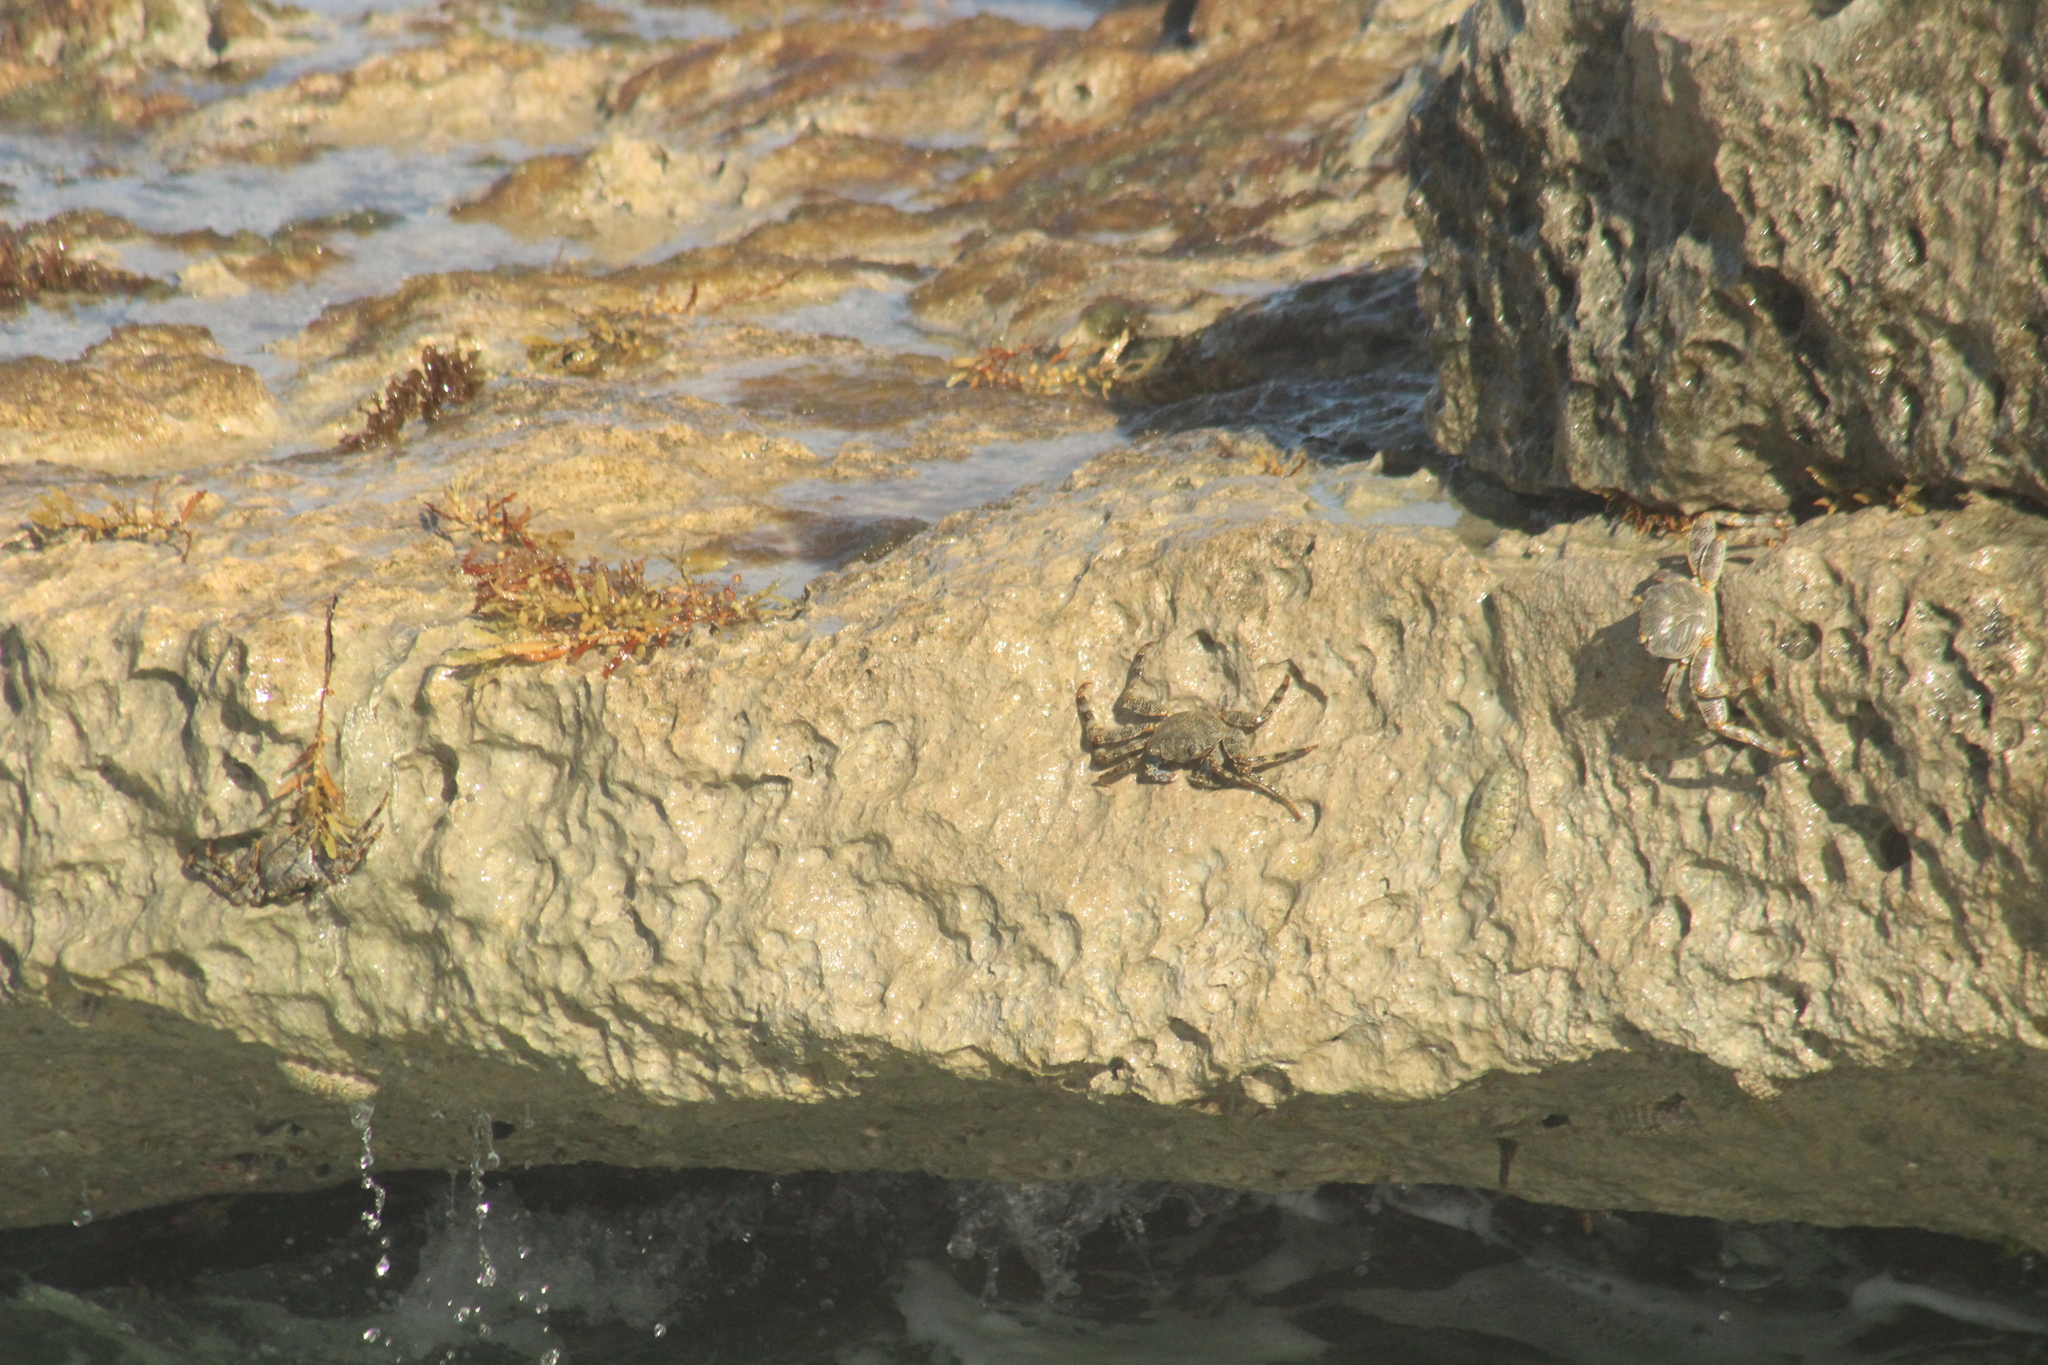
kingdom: Animalia
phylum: Arthropoda
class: Malacostraca
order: Decapoda
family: Grapsidae
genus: Grapsus
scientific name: Grapsus grapsus
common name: Sally lightfoot
